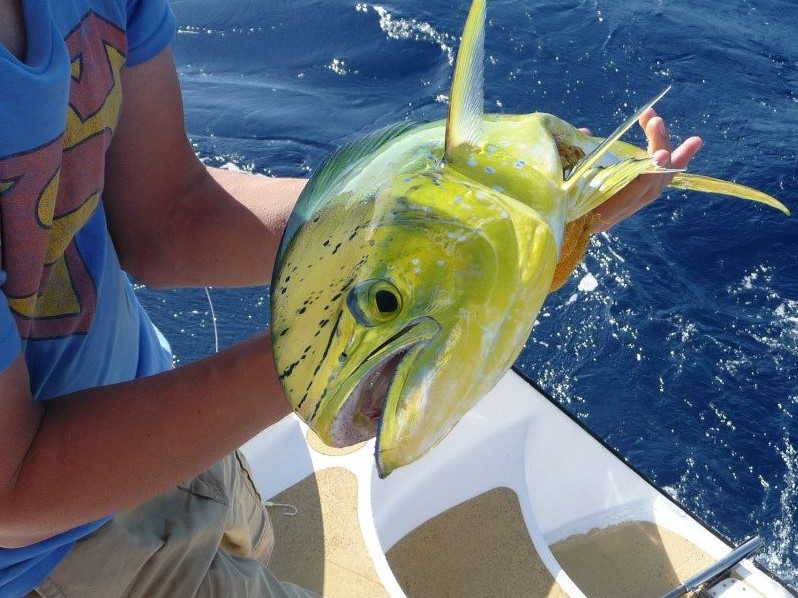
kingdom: Animalia
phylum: Chordata
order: Perciformes
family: Coryphaenidae
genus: Coryphaena
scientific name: Coryphaena hippurus
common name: Dolphin
